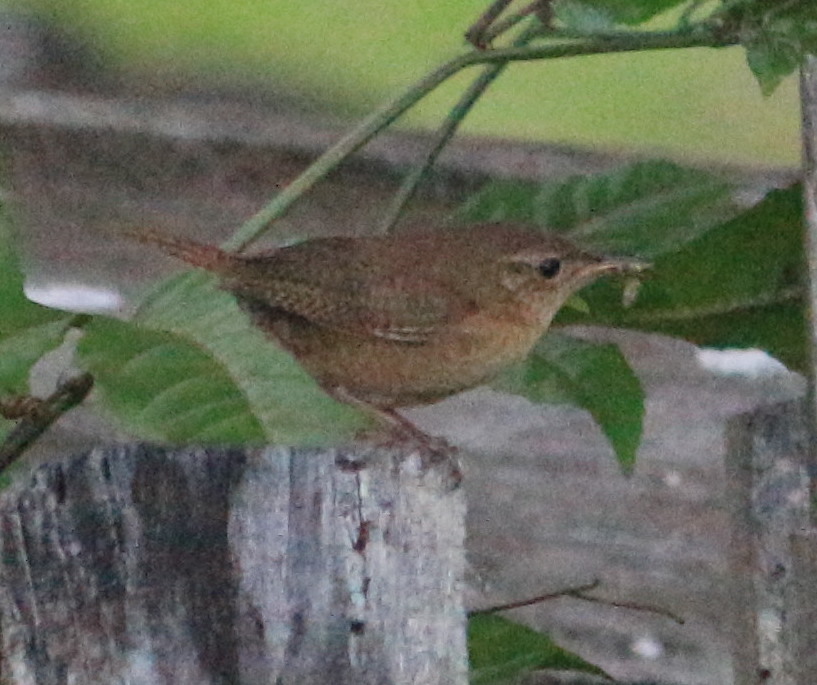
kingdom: Animalia
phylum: Chordata
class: Aves
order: Passeriformes
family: Troglodytidae
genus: Troglodytes
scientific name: Troglodytes aedon
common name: House wren
